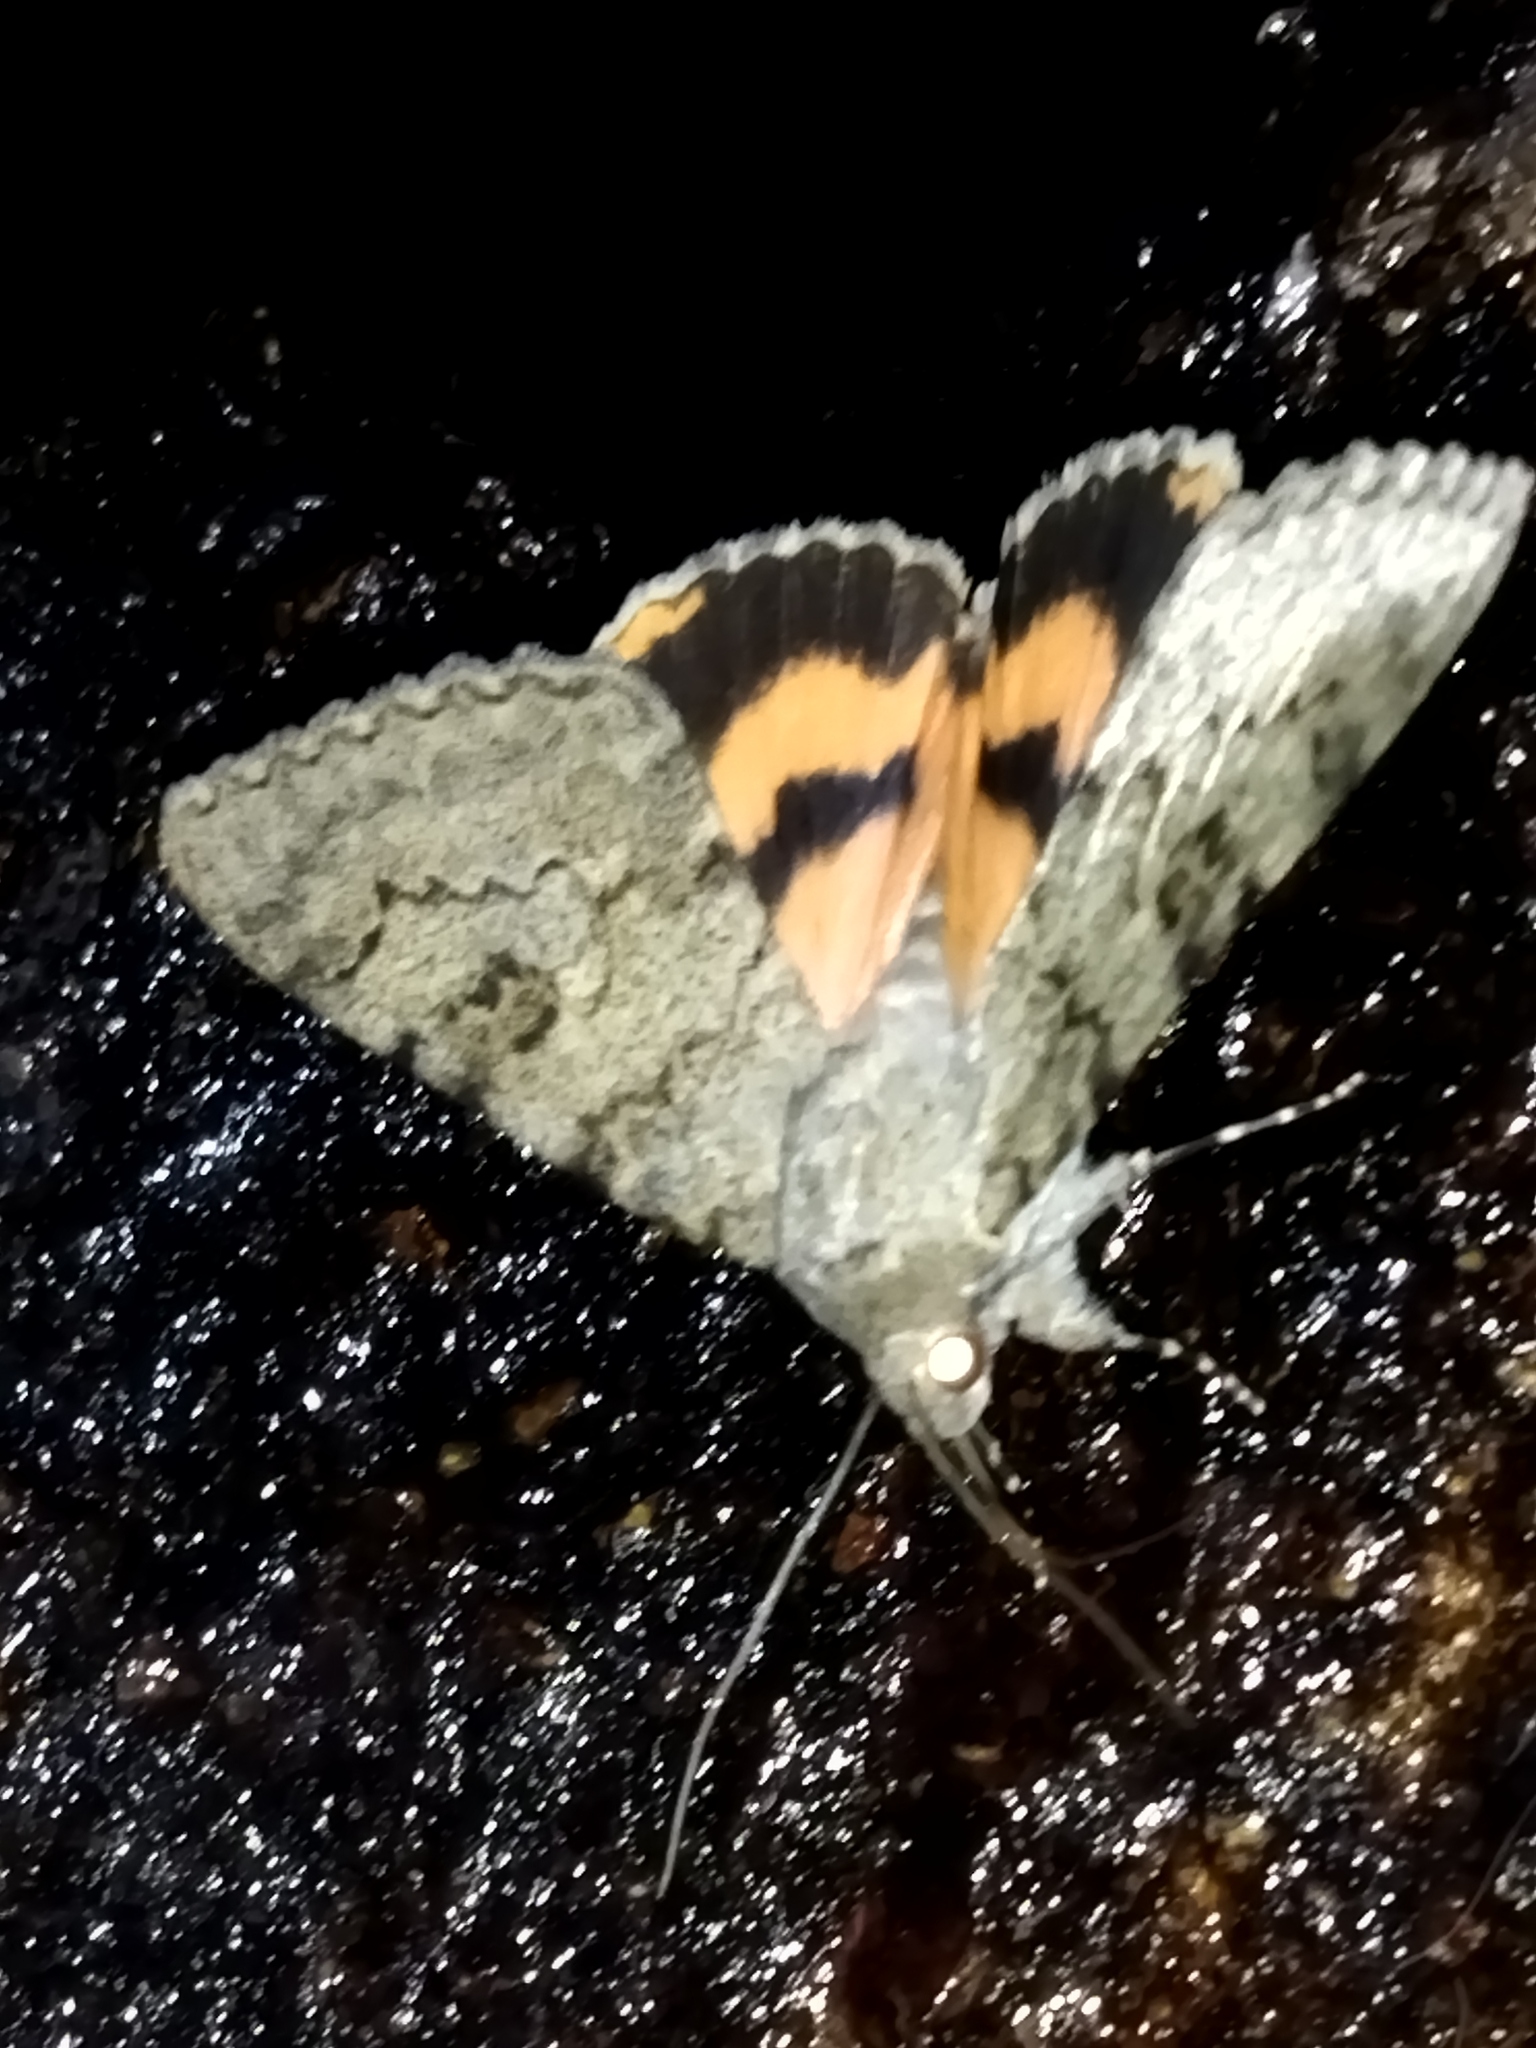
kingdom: Animalia
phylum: Arthropoda
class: Insecta
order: Lepidoptera
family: Erebidae
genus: Catocala
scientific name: Catocala puerpera
